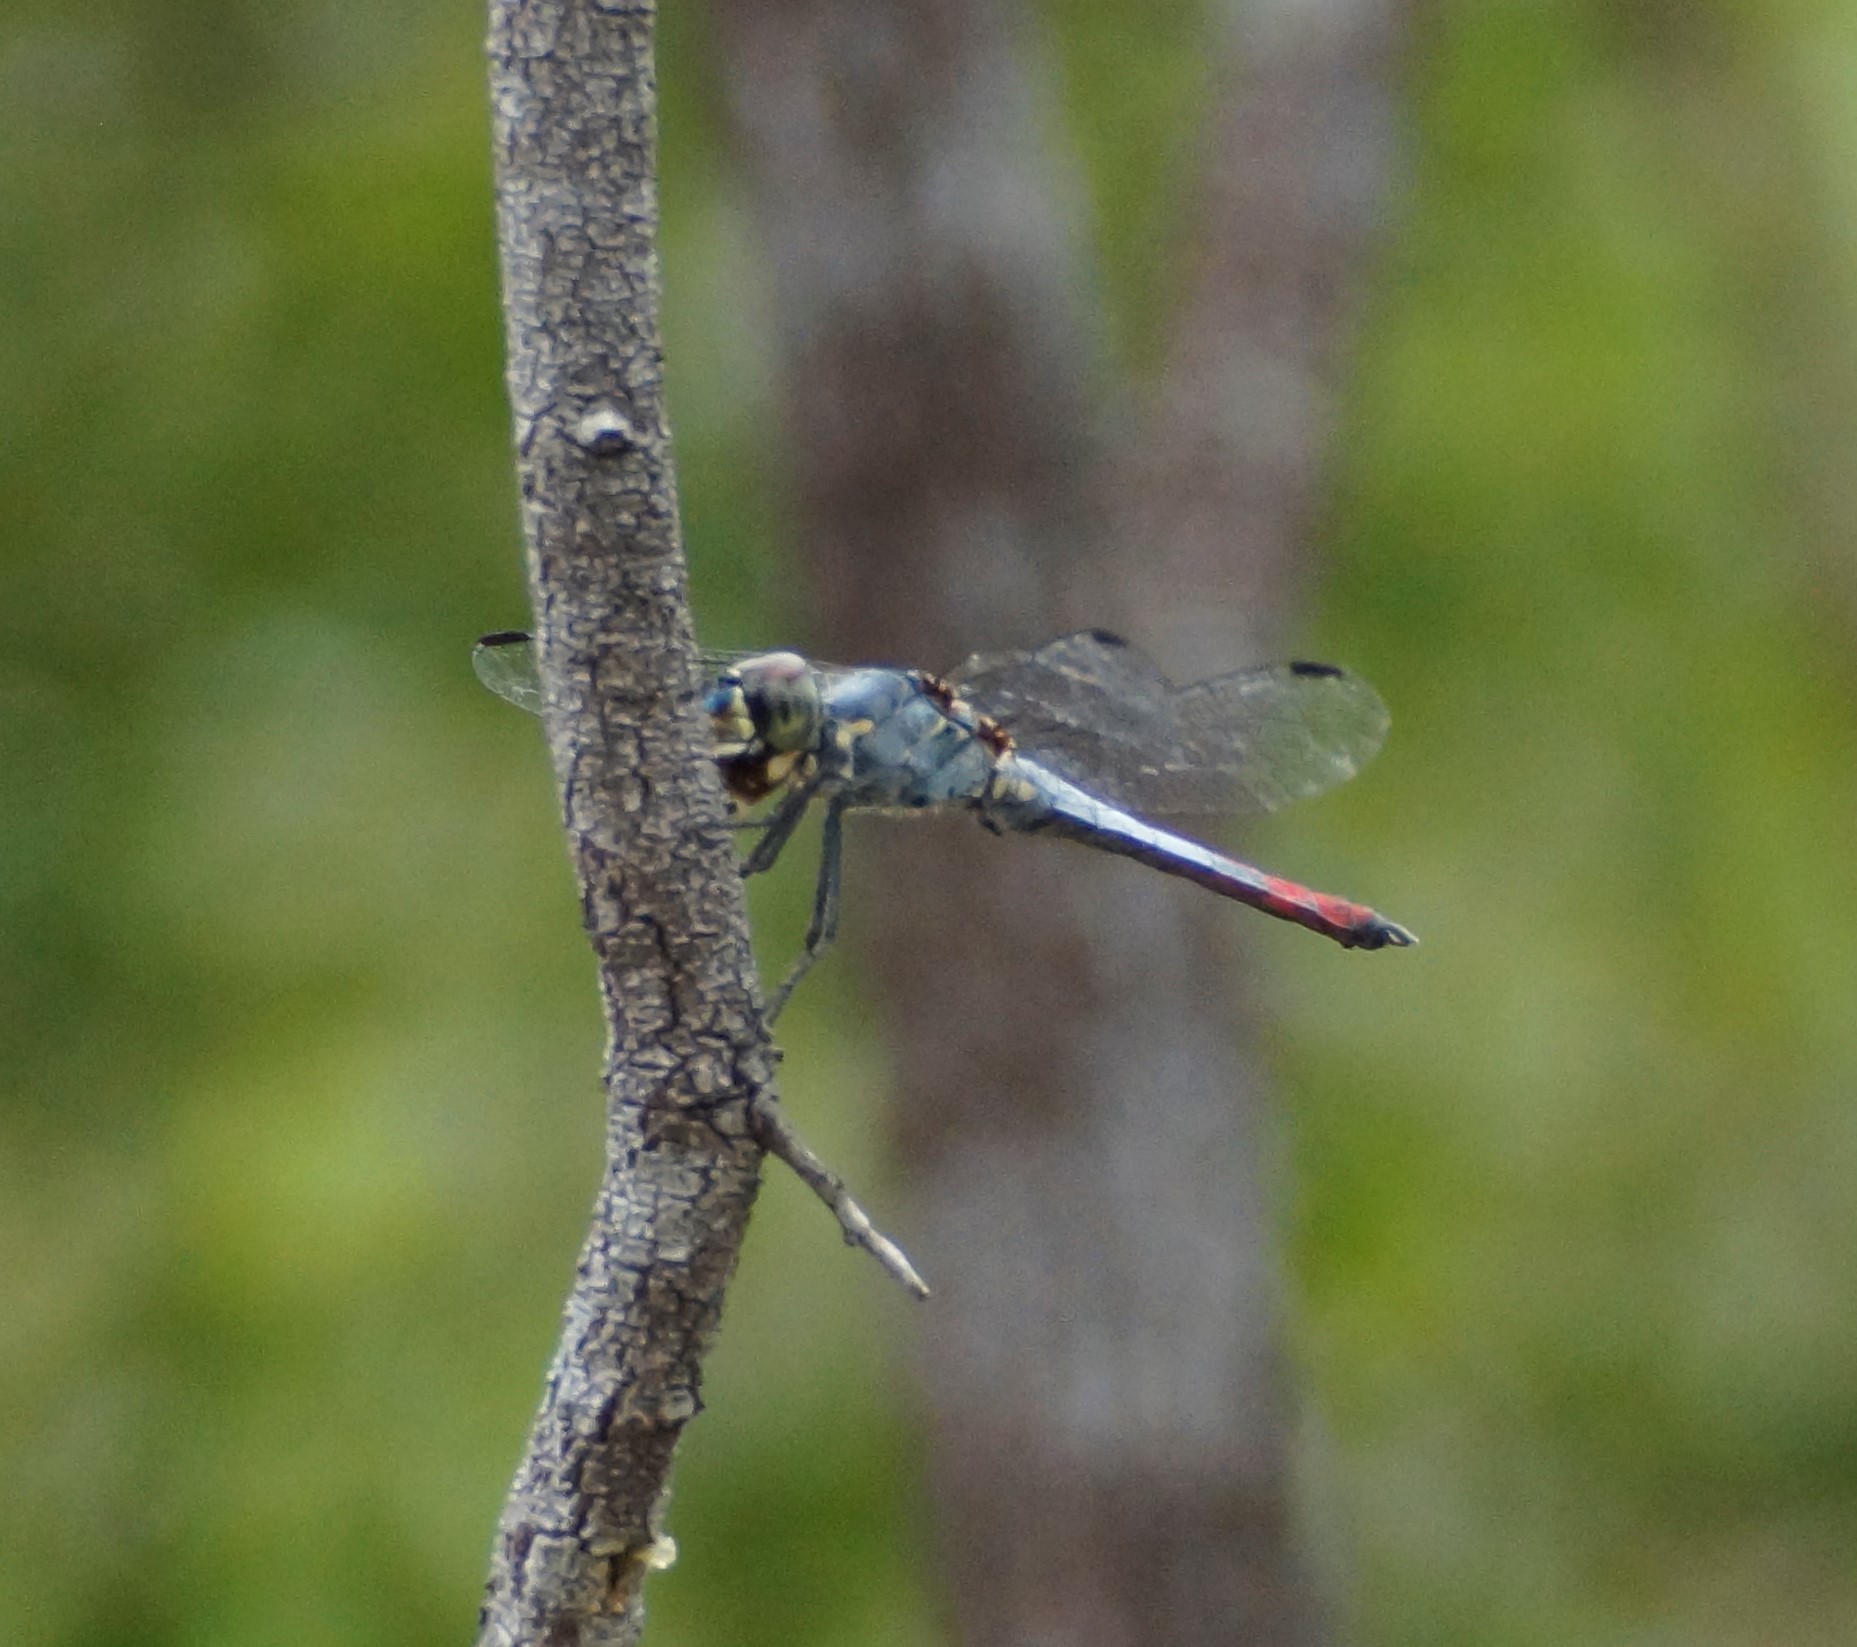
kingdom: Animalia
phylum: Arthropoda
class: Insecta
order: Odonata
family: Libellulidae
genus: Notolibellula
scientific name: Notolibellula bicolor
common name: Bicoloured skimmer
